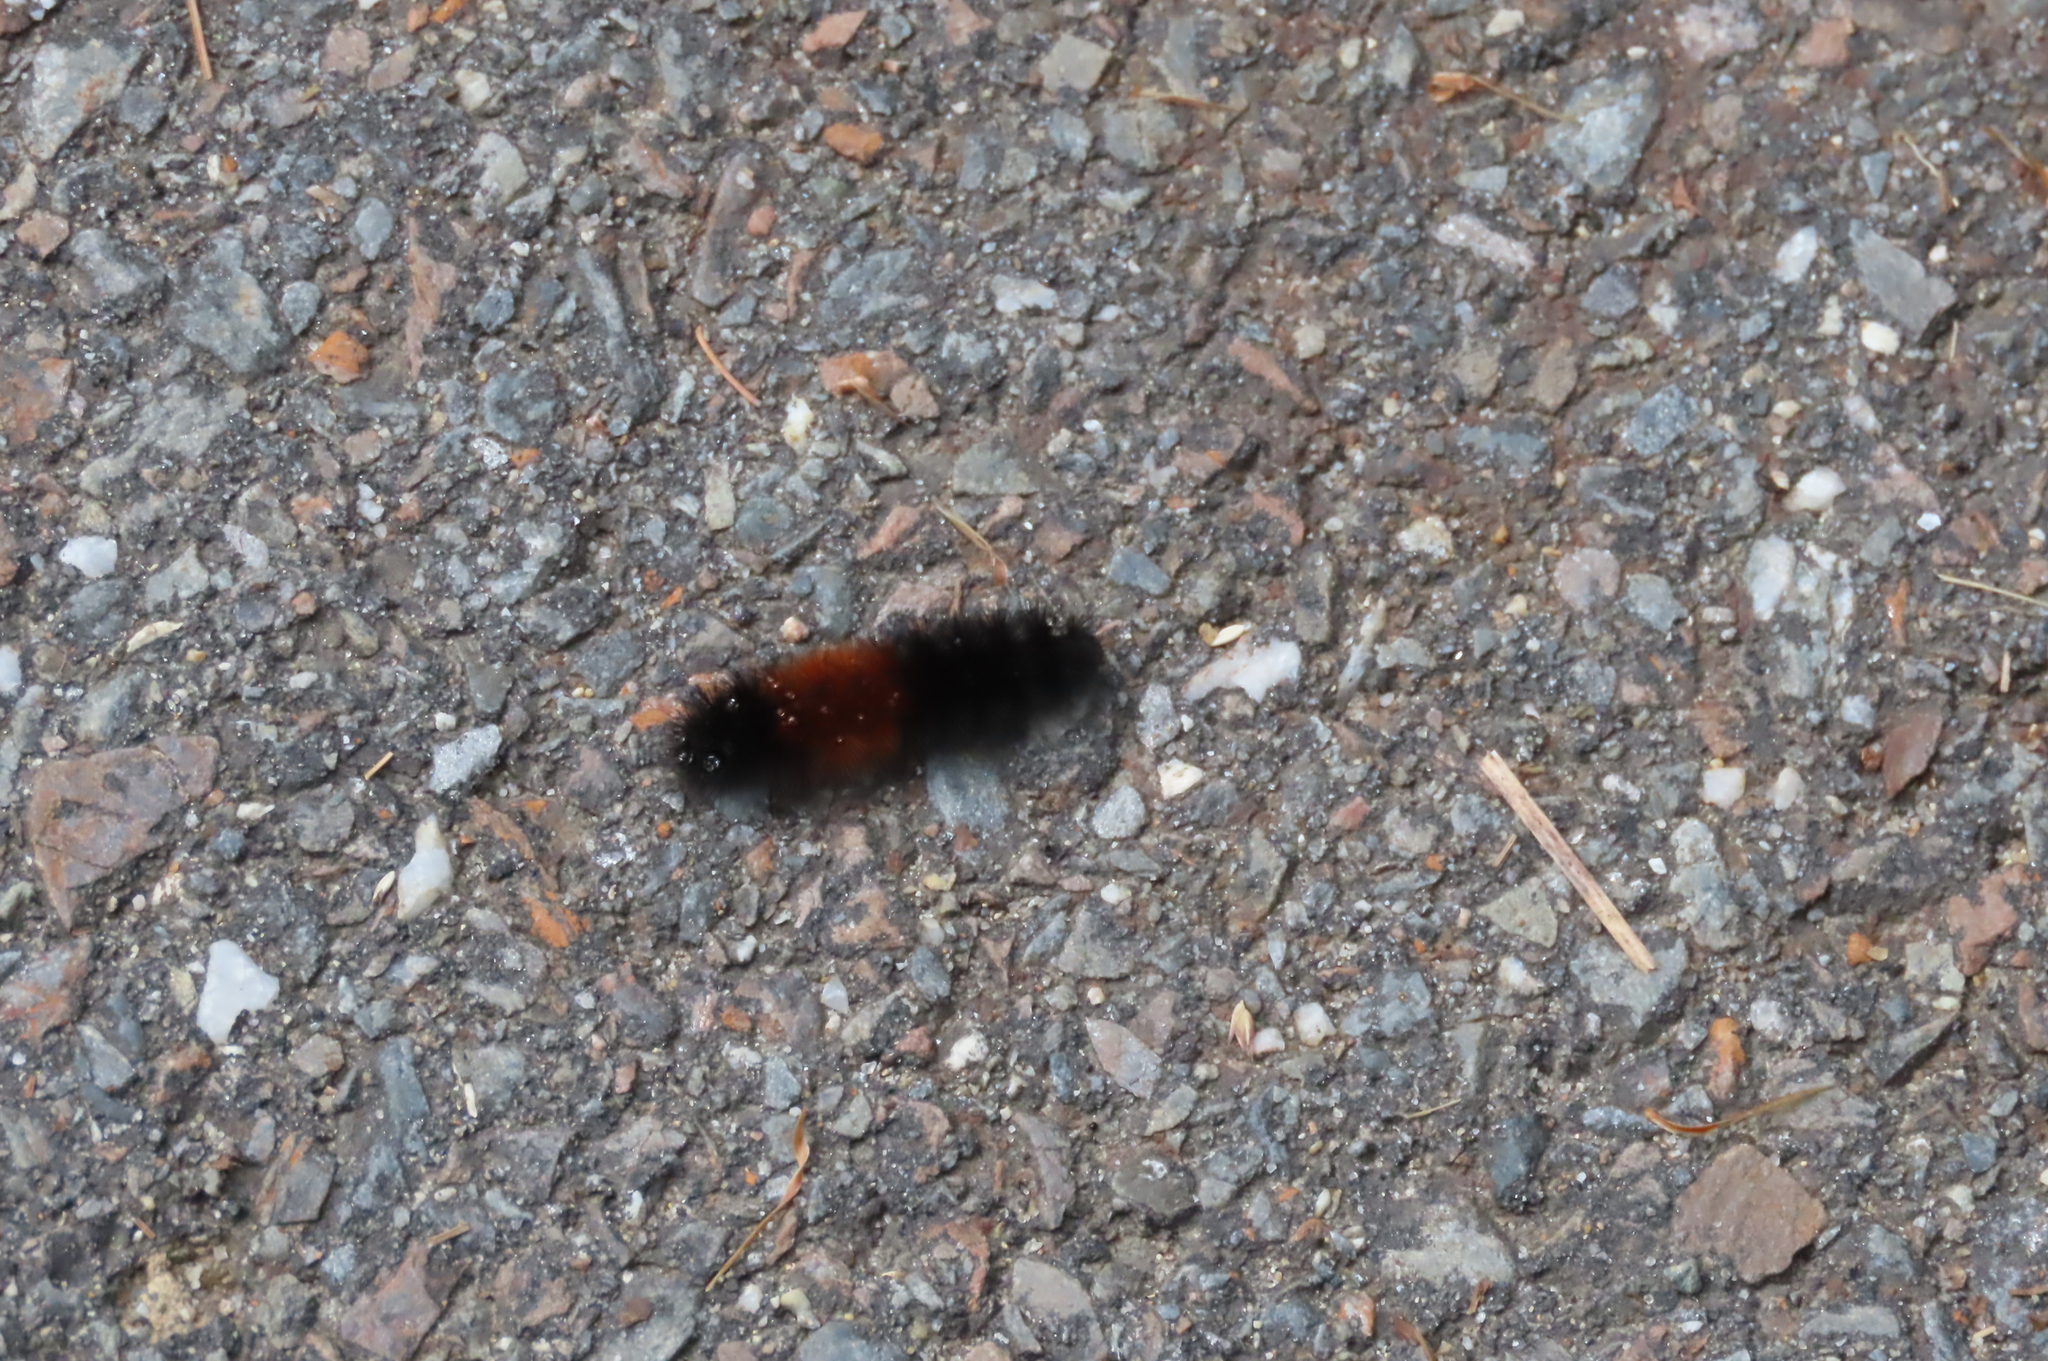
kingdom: Animalia
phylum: Arthropoda
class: Insecta
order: Lepidoptera
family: Erebidae
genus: Pyrrharctia
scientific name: Pyrrharctia isabella
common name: Isabella tiger moth
